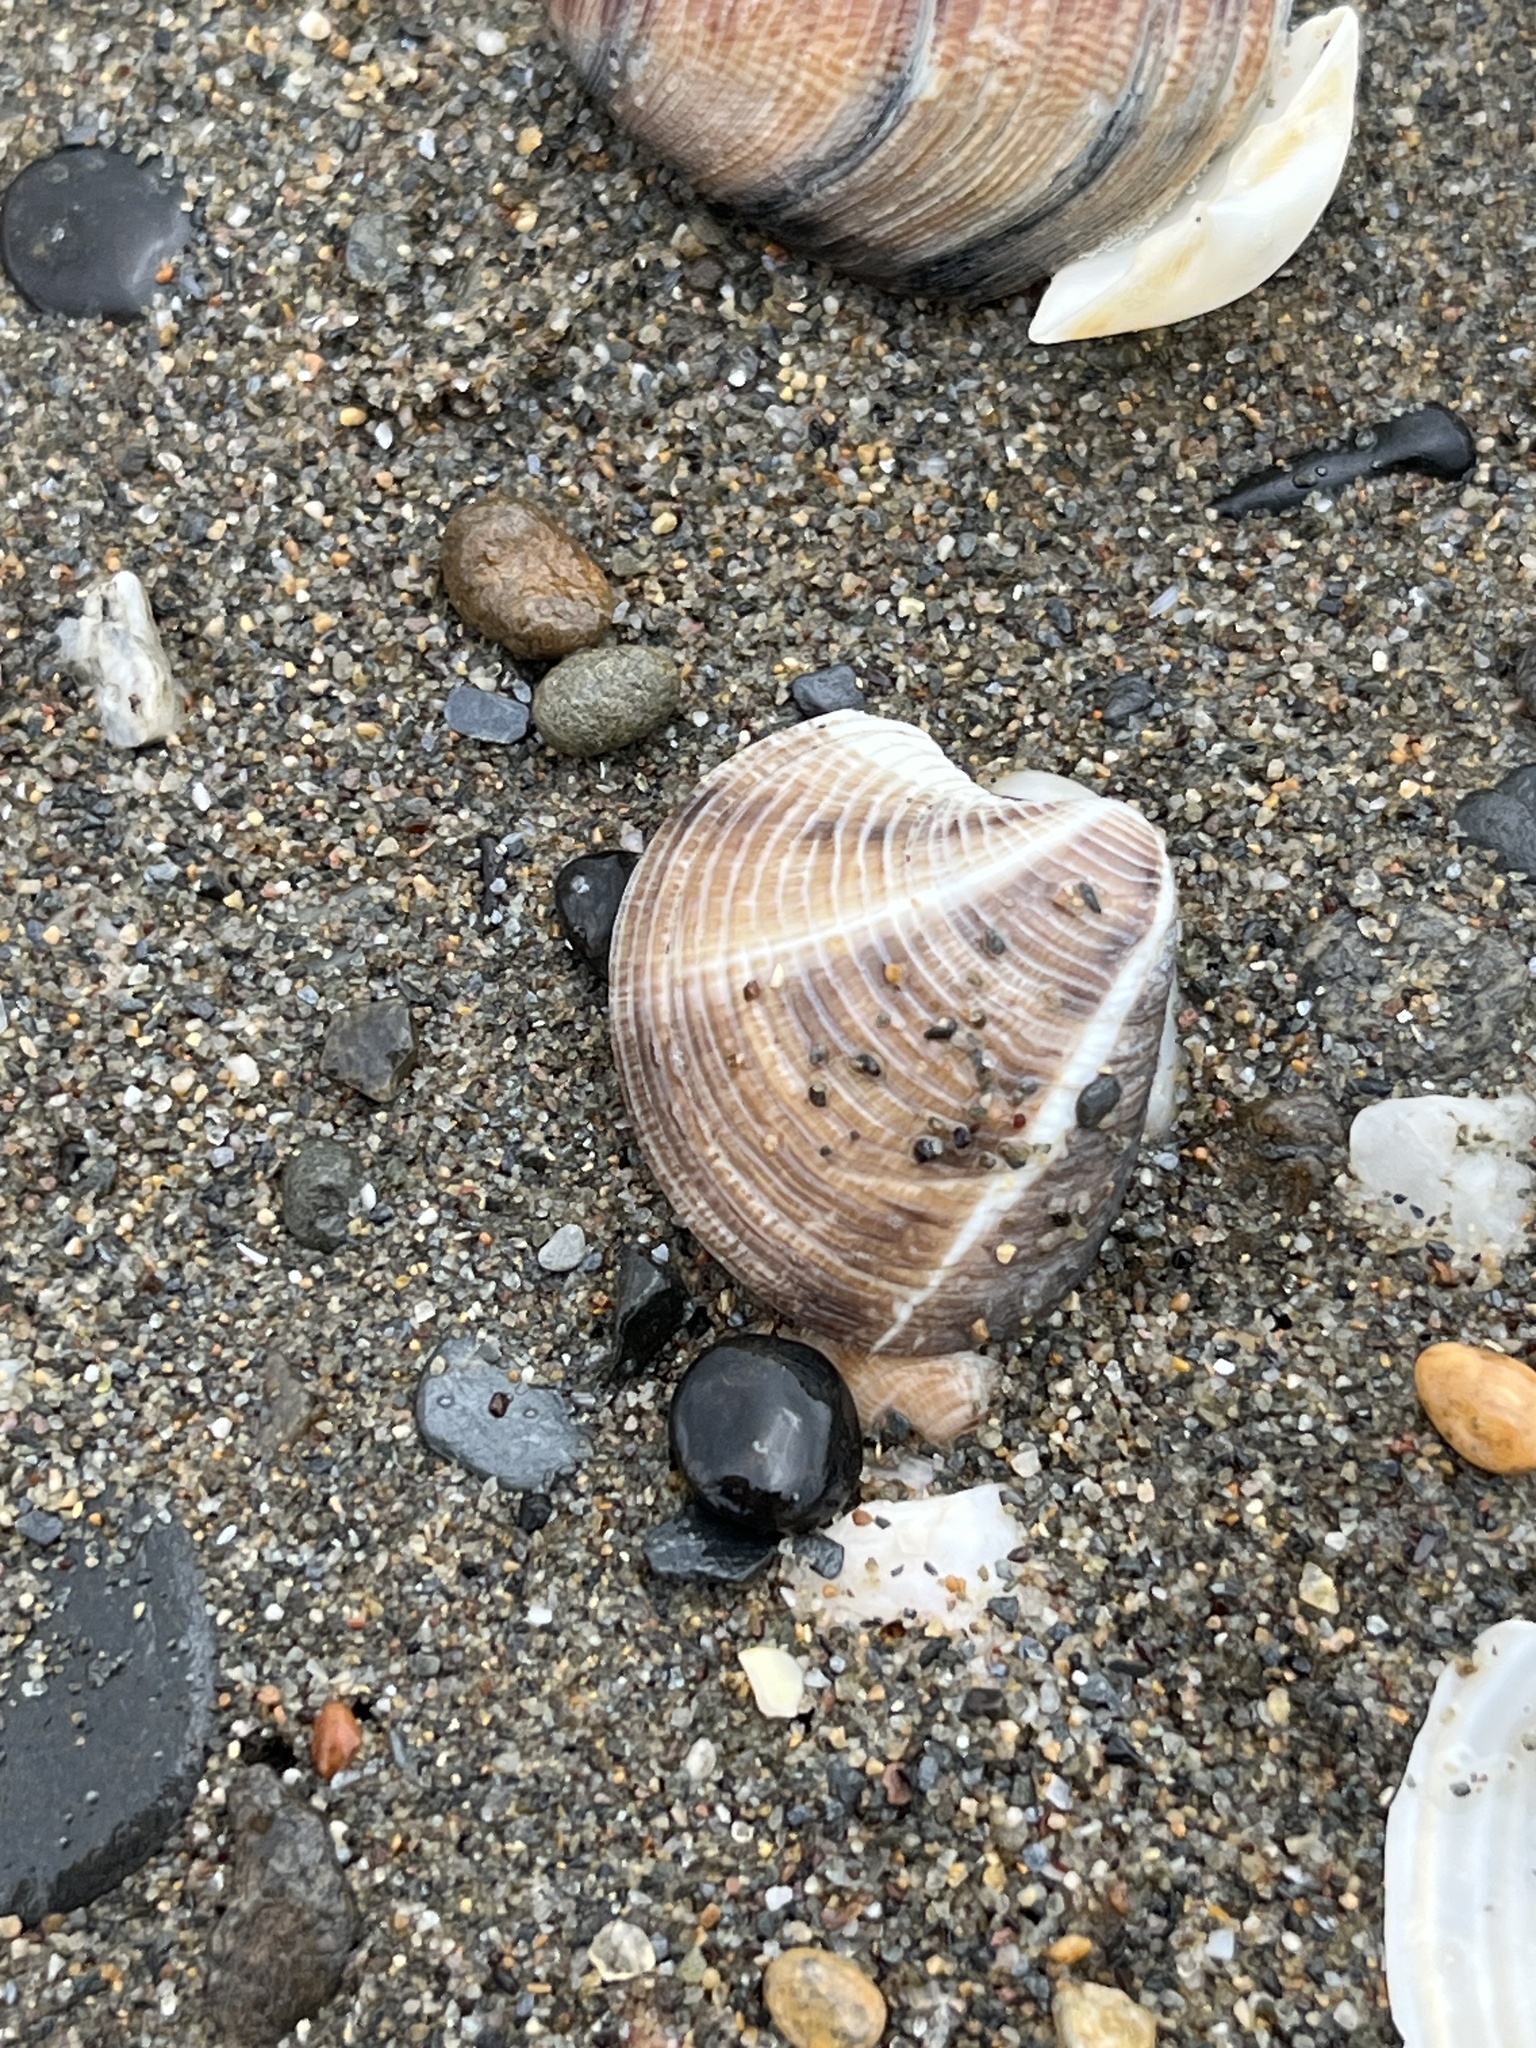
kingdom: Animalia
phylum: Mollusca
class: Bivalvia
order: Venerida
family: Veneridae
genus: Chamelea
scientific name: Chamelea gallina
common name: Chicken venus
